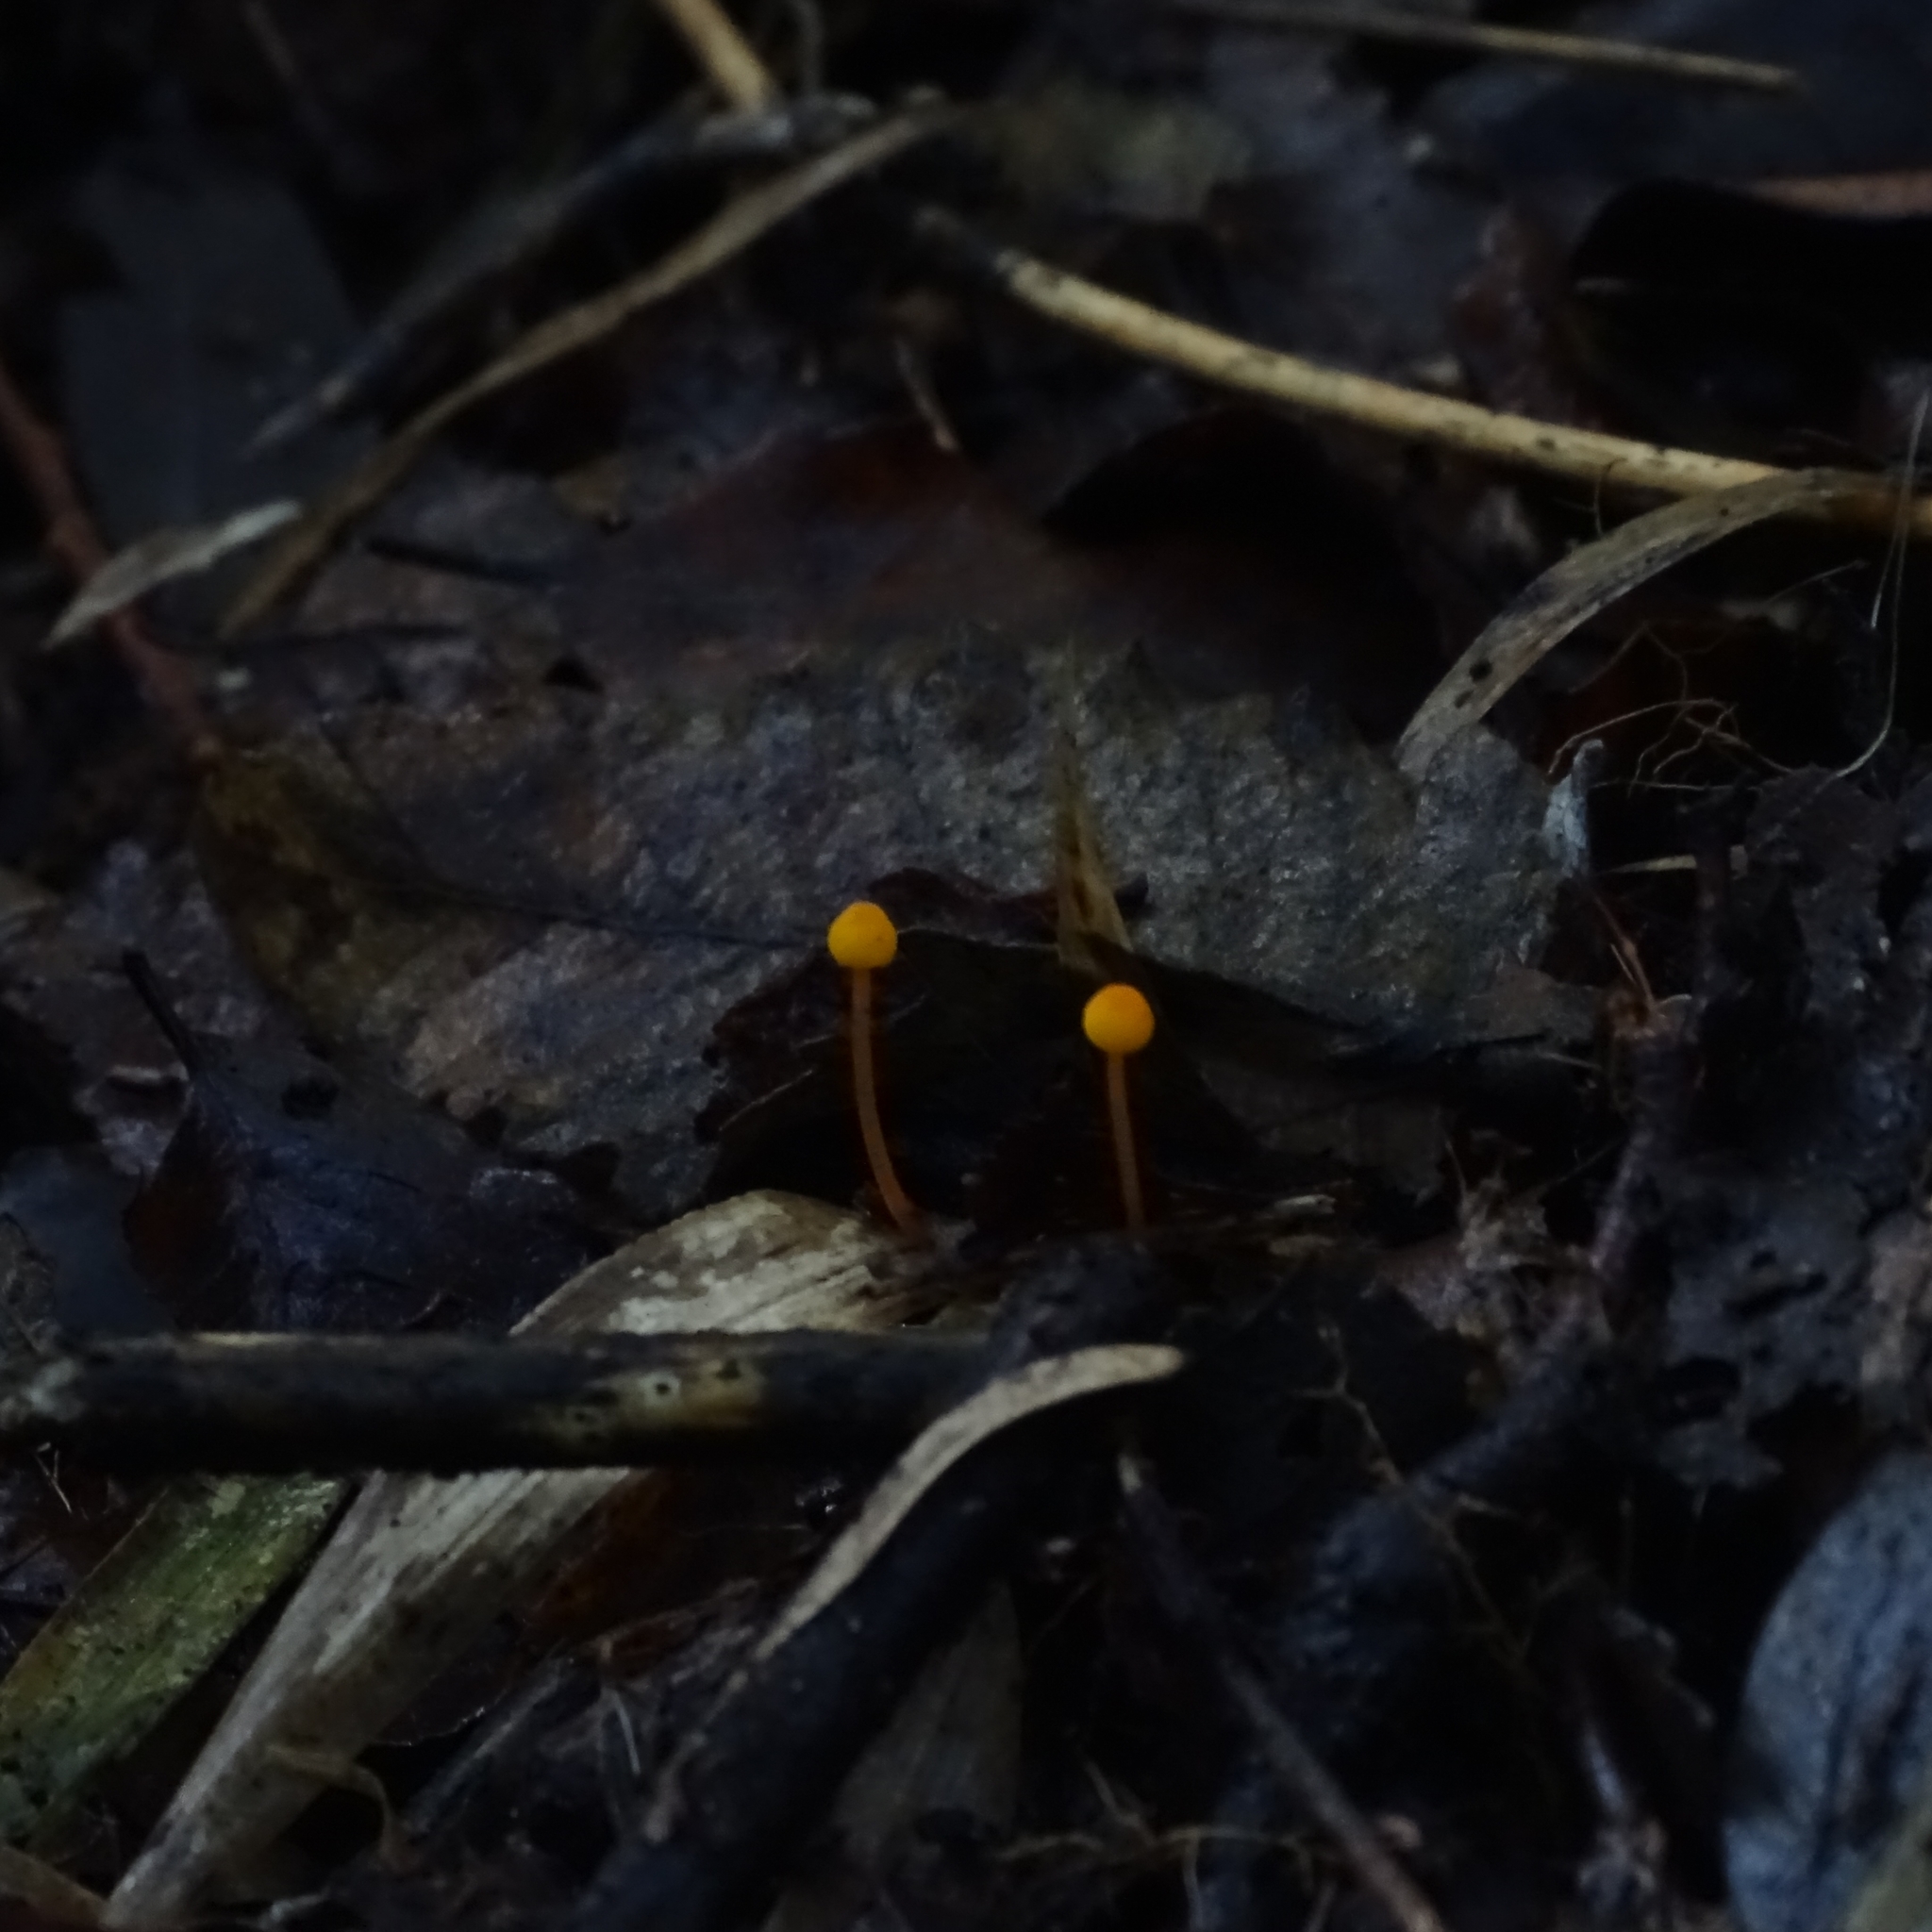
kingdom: Fungi
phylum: Basidiomycota
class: Agaricomycetes
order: Agaricales
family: Mycenaceae
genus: Mycena
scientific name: Mycena chusqueophila
